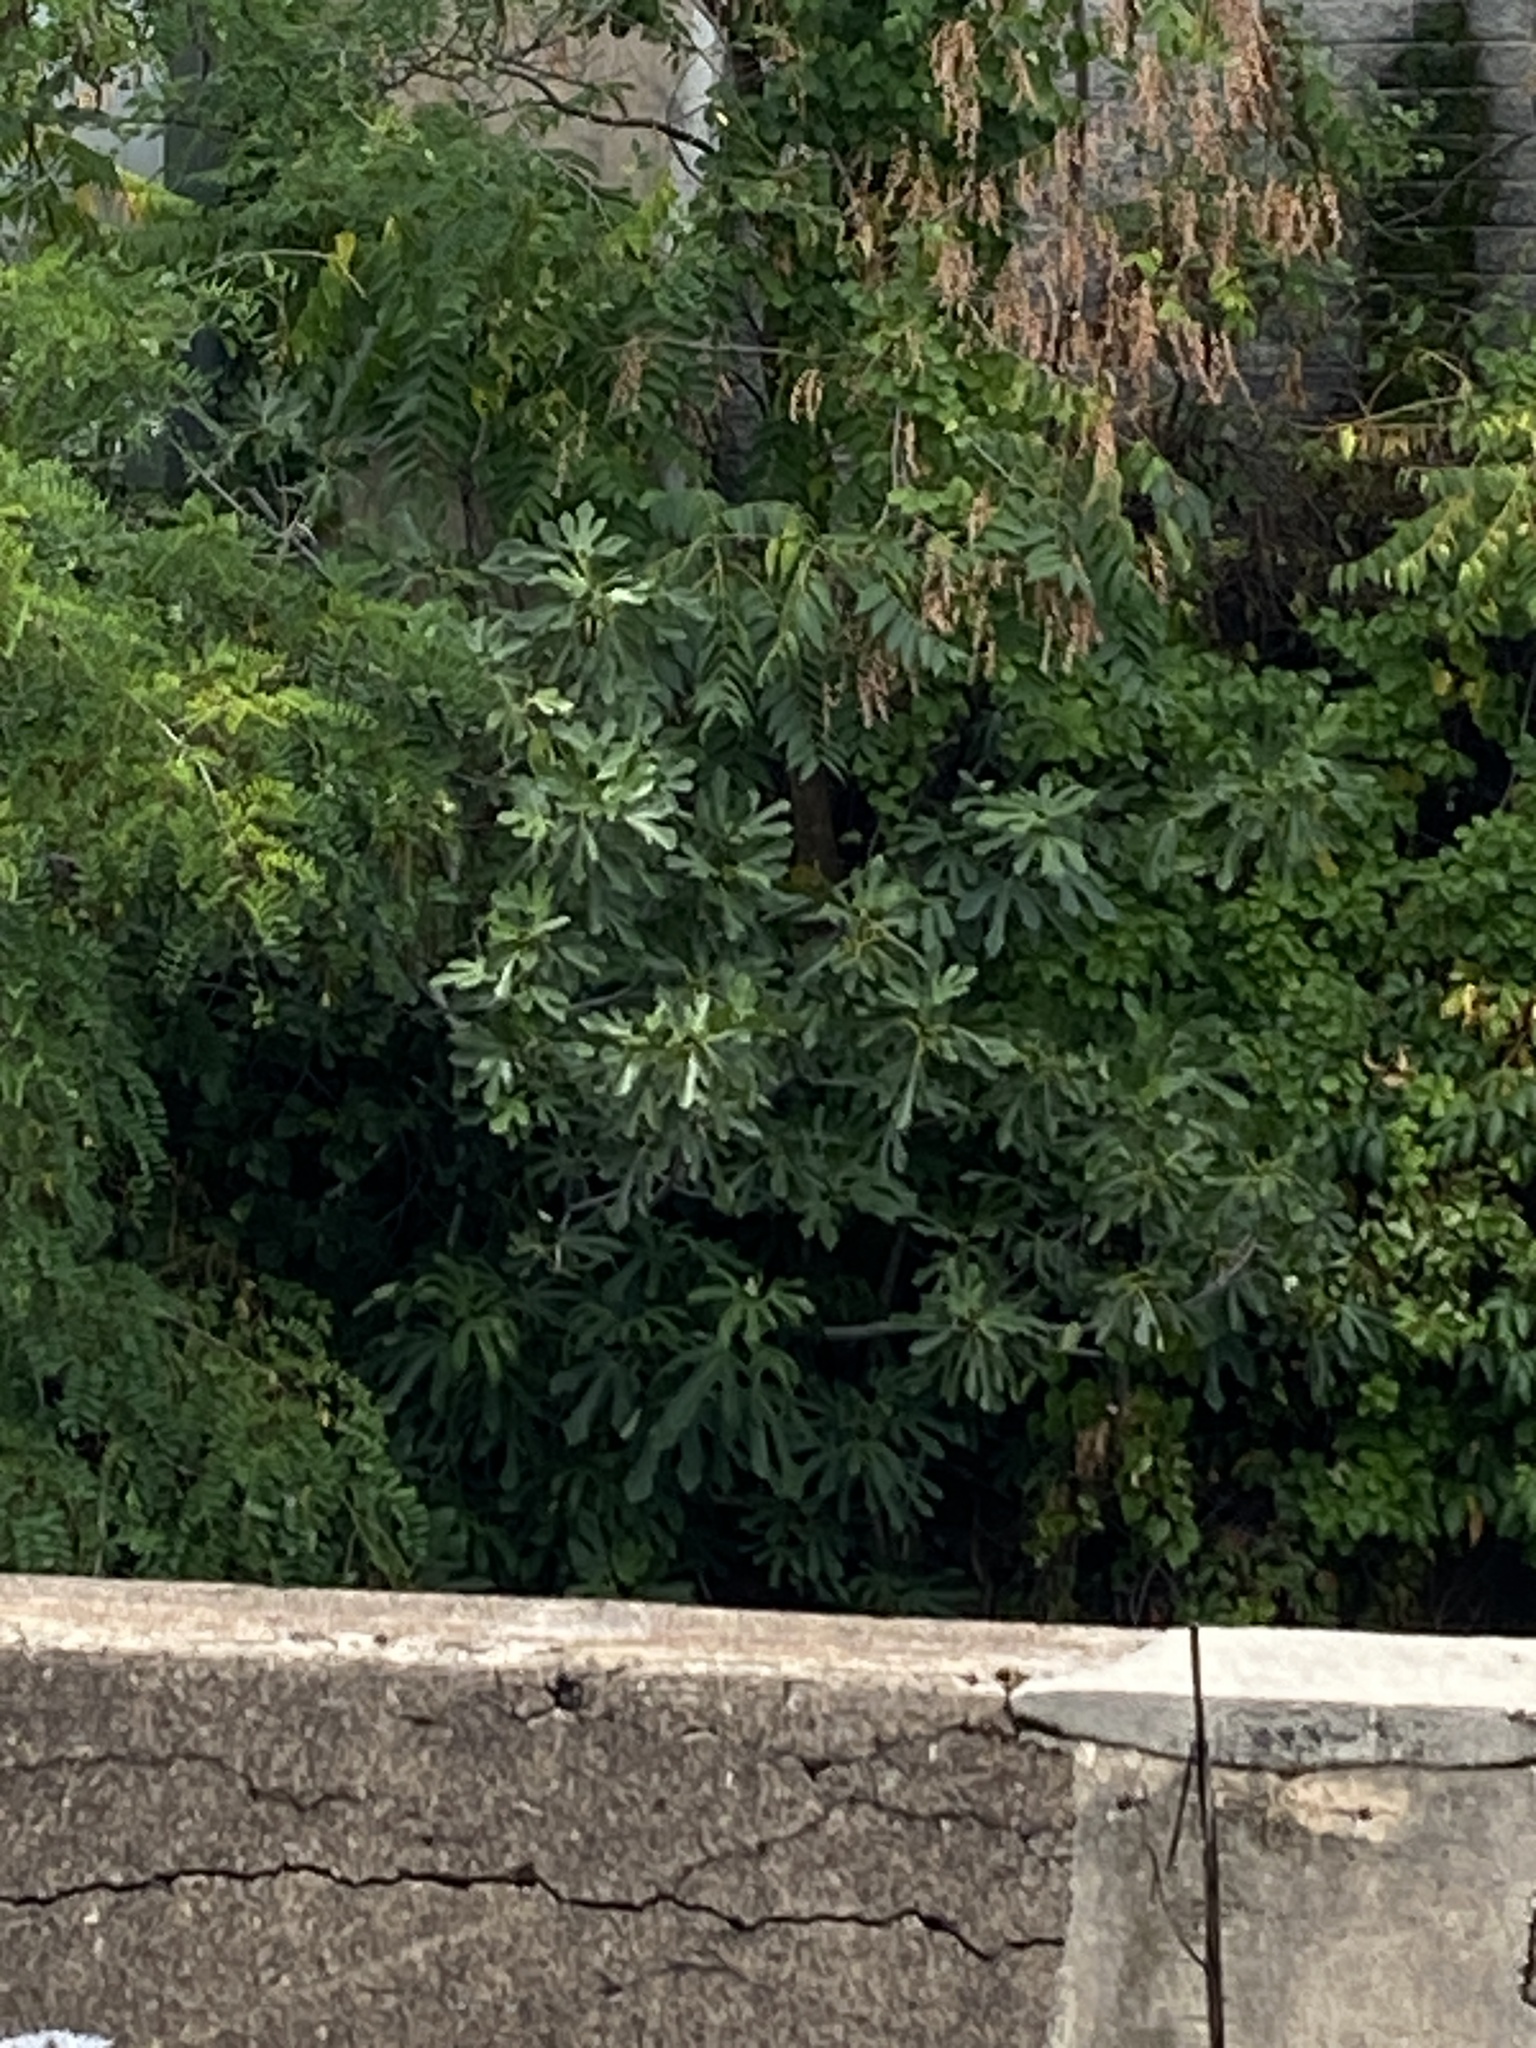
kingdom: Plantae
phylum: Tracheophyta
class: Magnoliopsida
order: Rosales
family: Moraceae
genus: Ficus
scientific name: Ficus carica
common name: Fig
